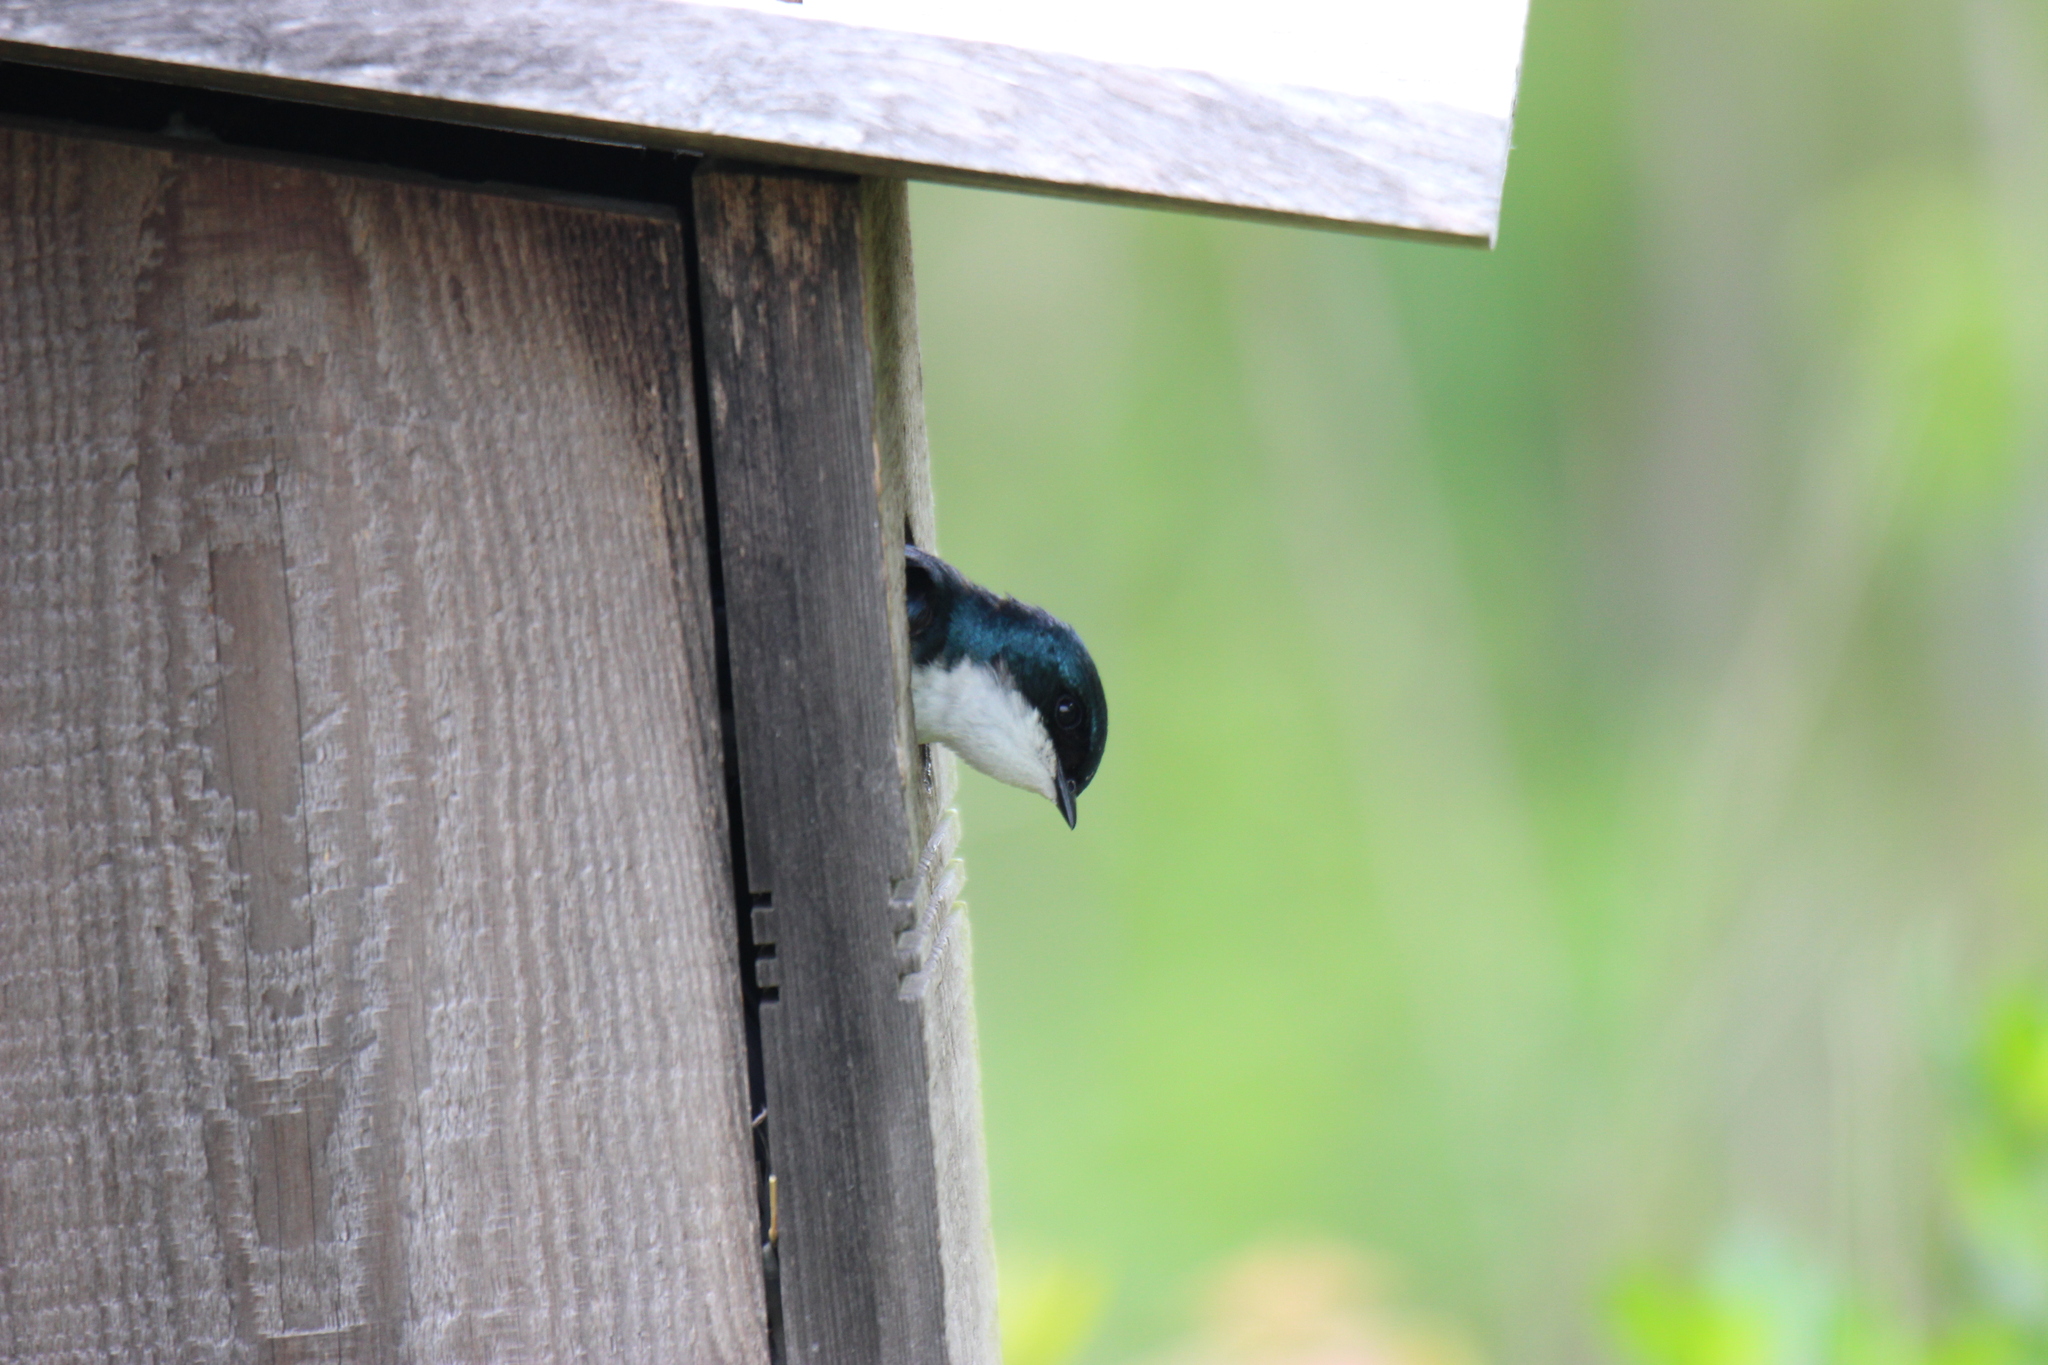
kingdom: Animalia
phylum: Chordata
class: Aves
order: Passeriformes
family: Hirundinidae
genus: Tachycineta
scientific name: Tachycineta bicolor
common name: Tree swallow
